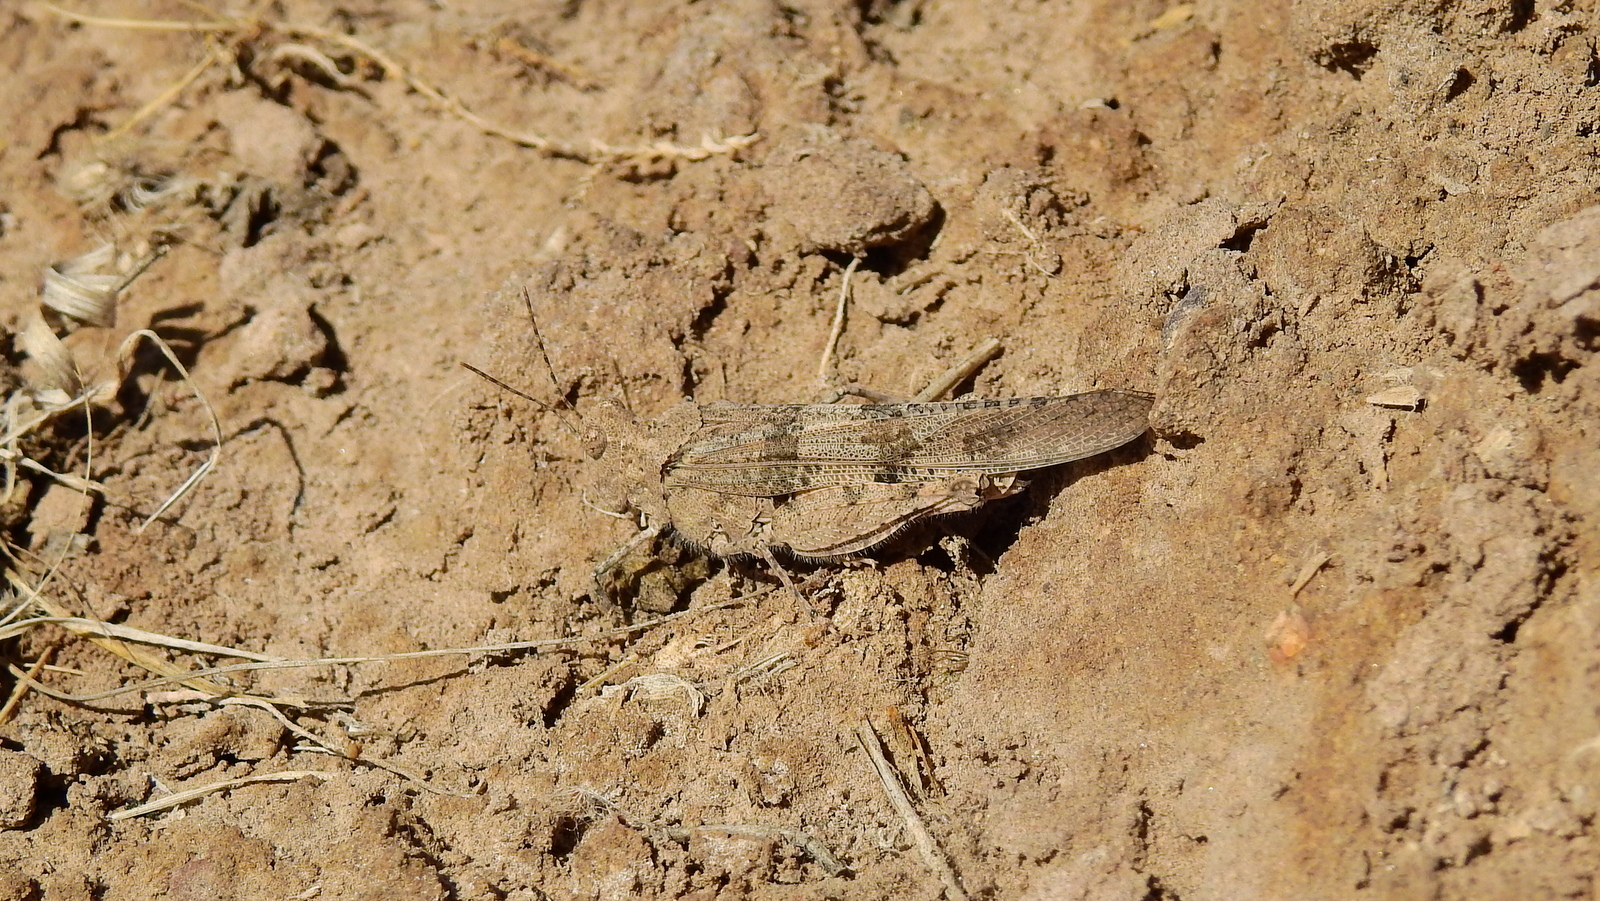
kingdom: Animalia
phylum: Arthropoda
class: Insecta
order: Orthoptera
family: Acrididae
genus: Trimerotropis
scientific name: Trimerotropis pallidipennis
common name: Pallid-winged grasshopper
